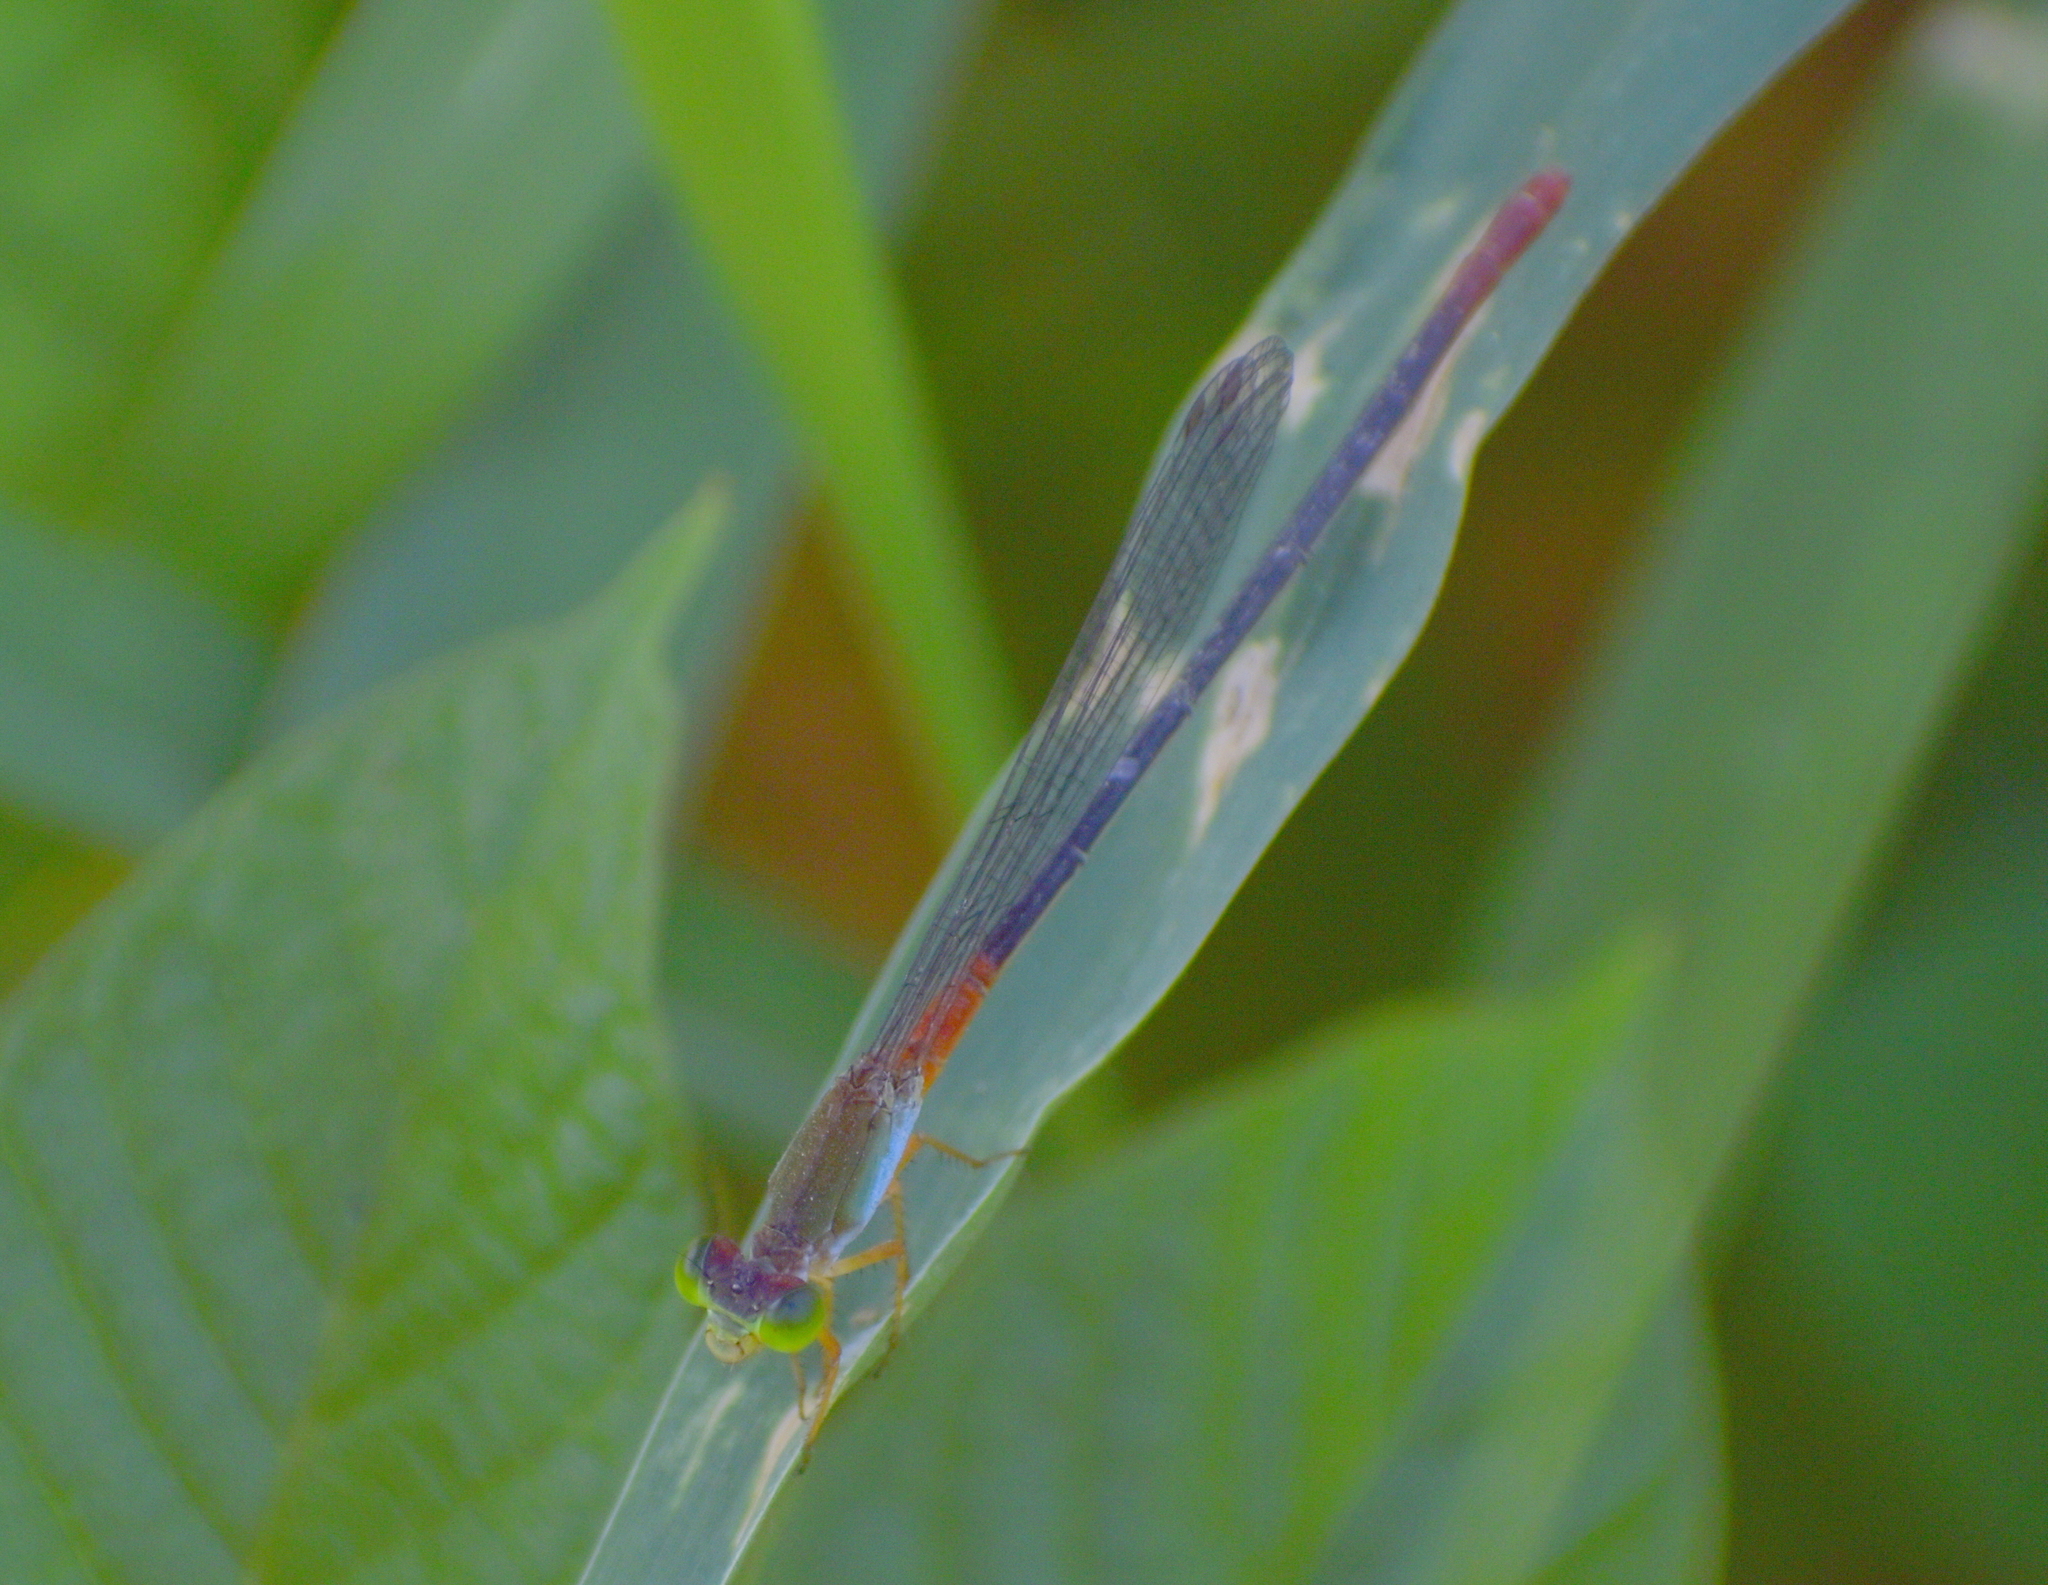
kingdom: Animalia
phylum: Arthropoda
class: Insecta
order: Odonata
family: Coenagrionidae
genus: Ceriagrion
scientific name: Ceriagrion cerinorubellum
